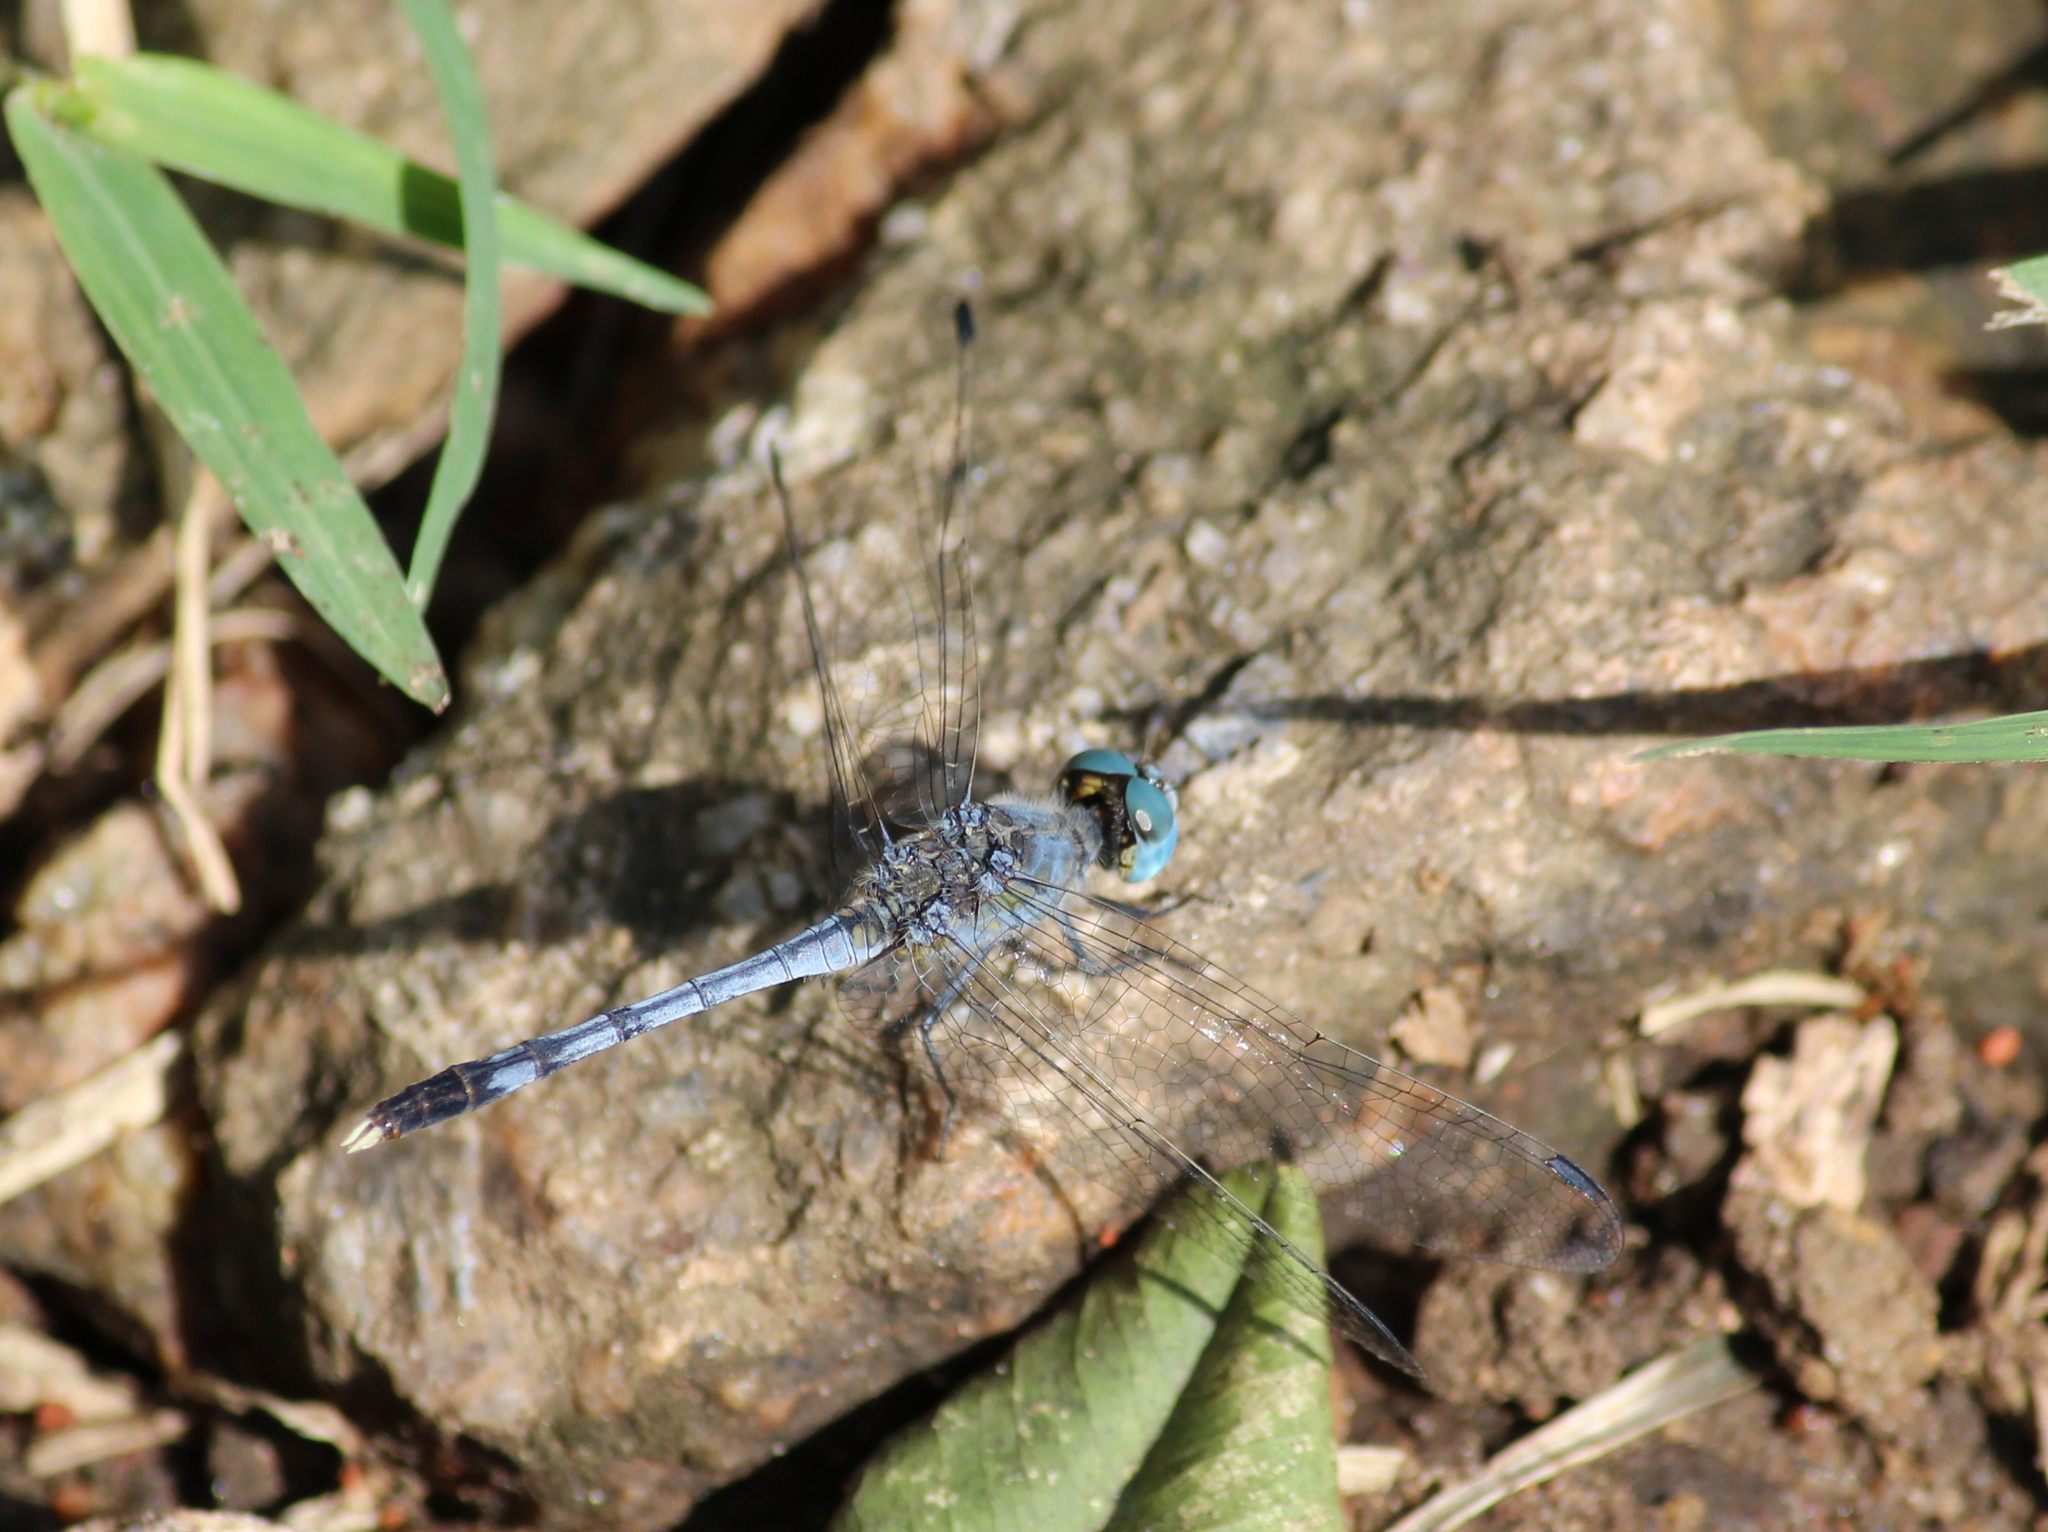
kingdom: Animalia
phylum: Arthropoda
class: Insecta
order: Odonata
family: Libellulidae
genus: Diplacodes
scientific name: Diplacodes trivialis
